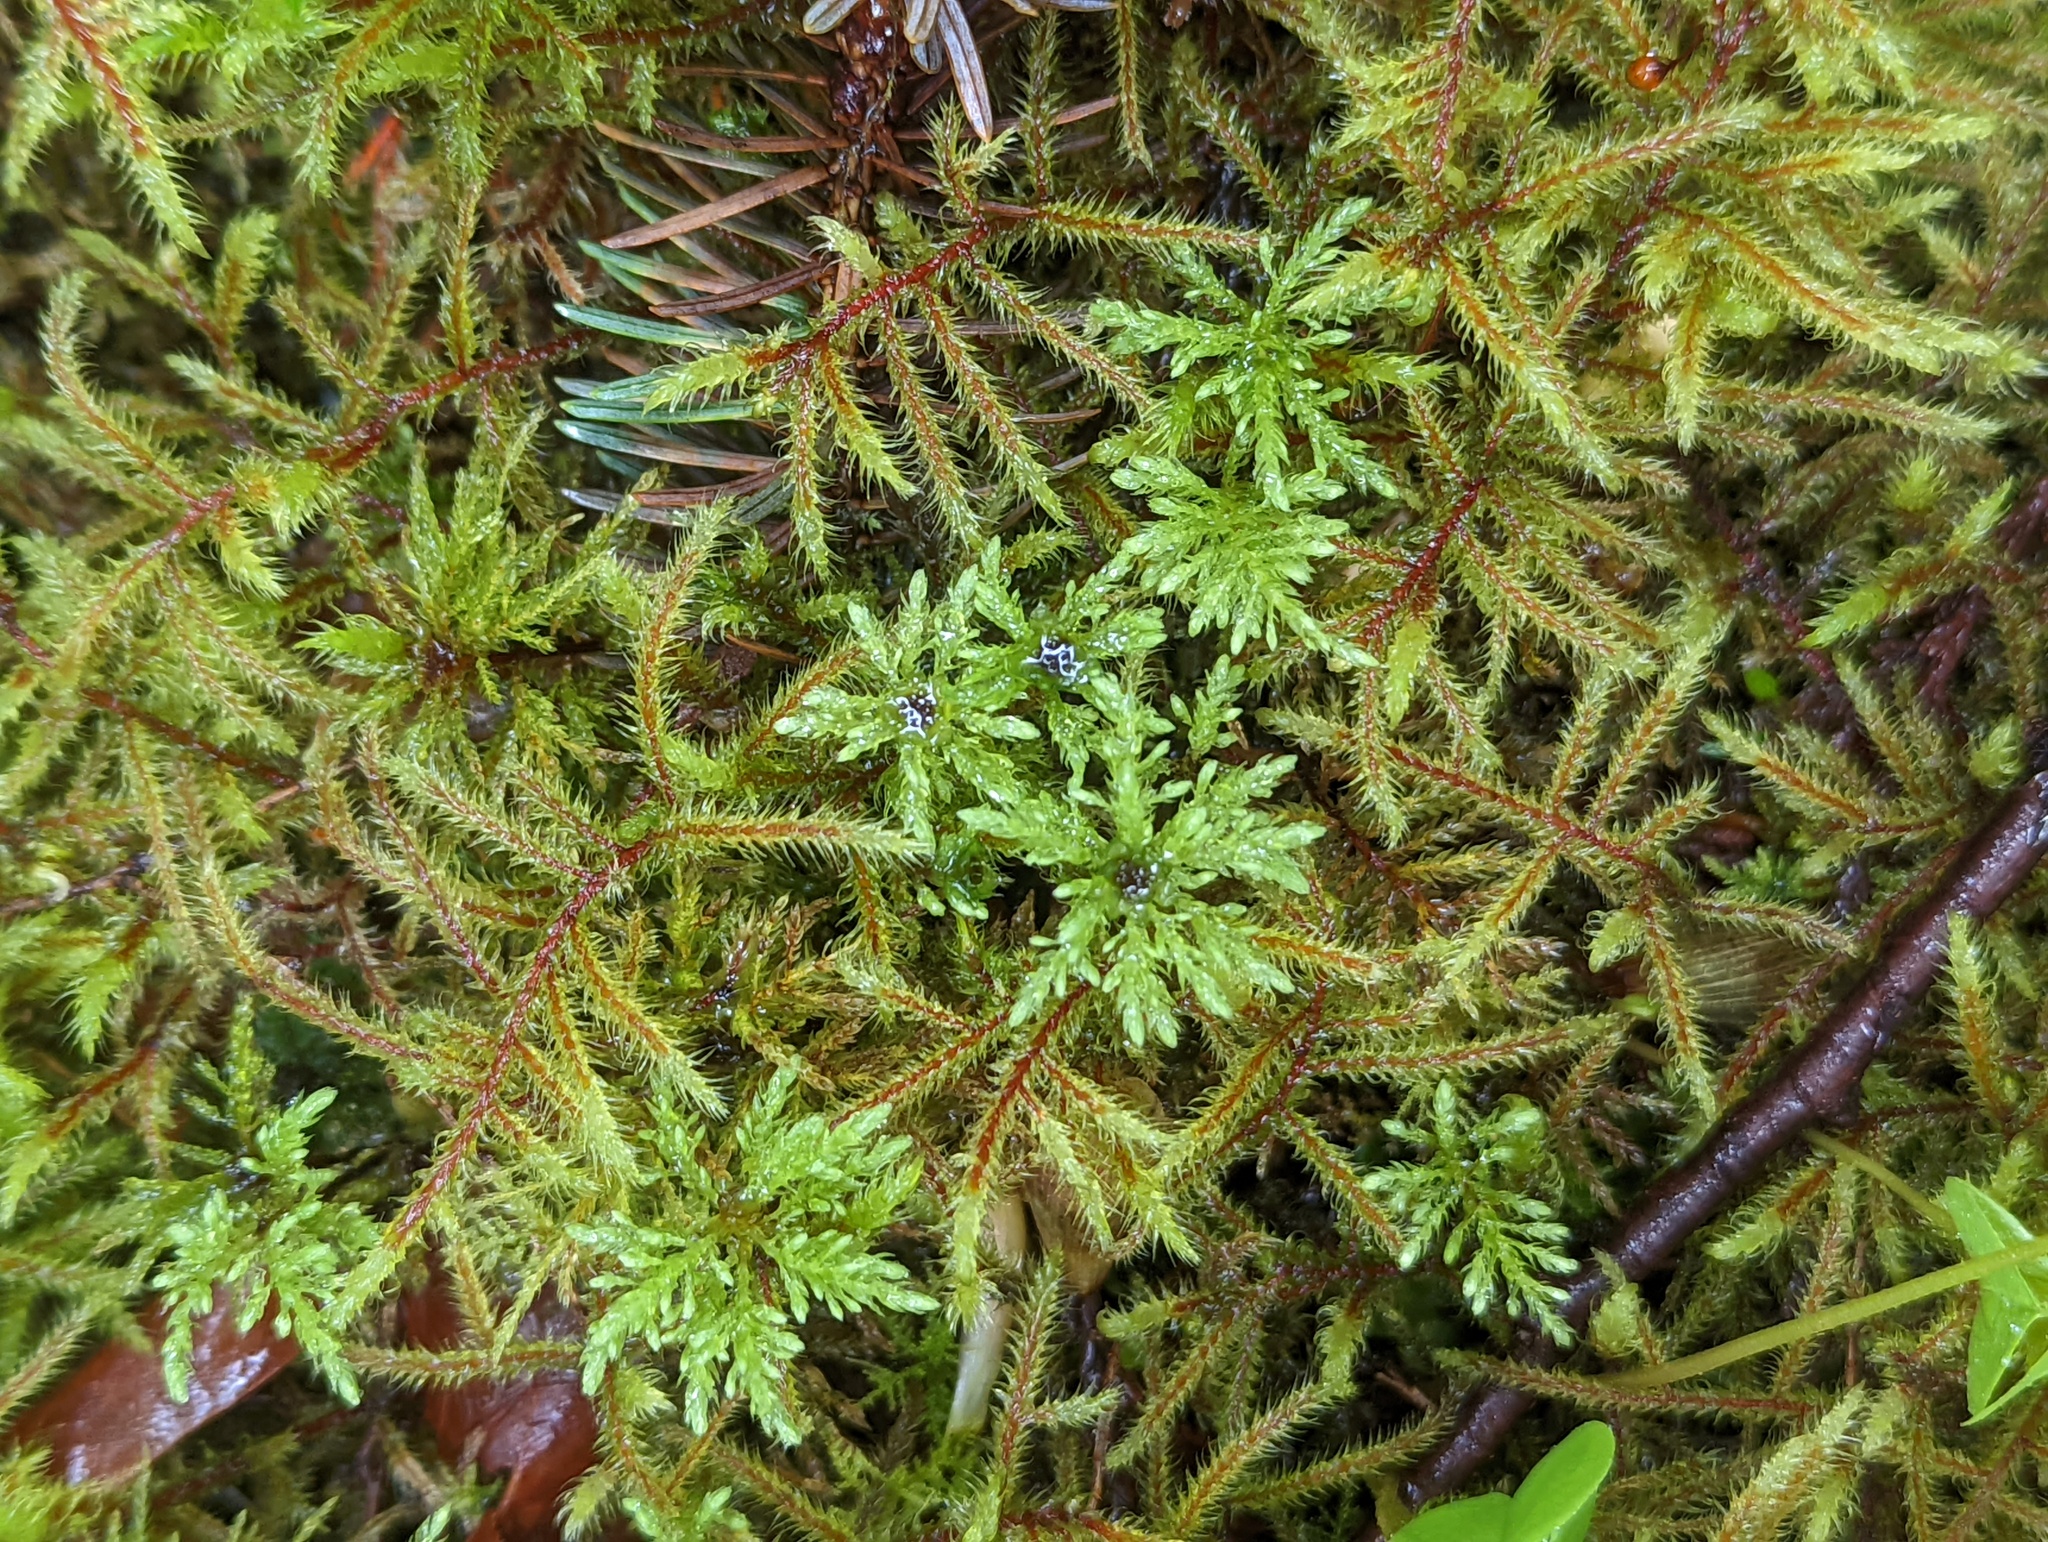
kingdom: Plantae
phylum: Bryophyta
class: Bryopsida
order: Bryales
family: Mniaceae
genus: Leucolepis
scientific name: Leucolepis acanthoneura
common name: Leucolepis umbrella moss
